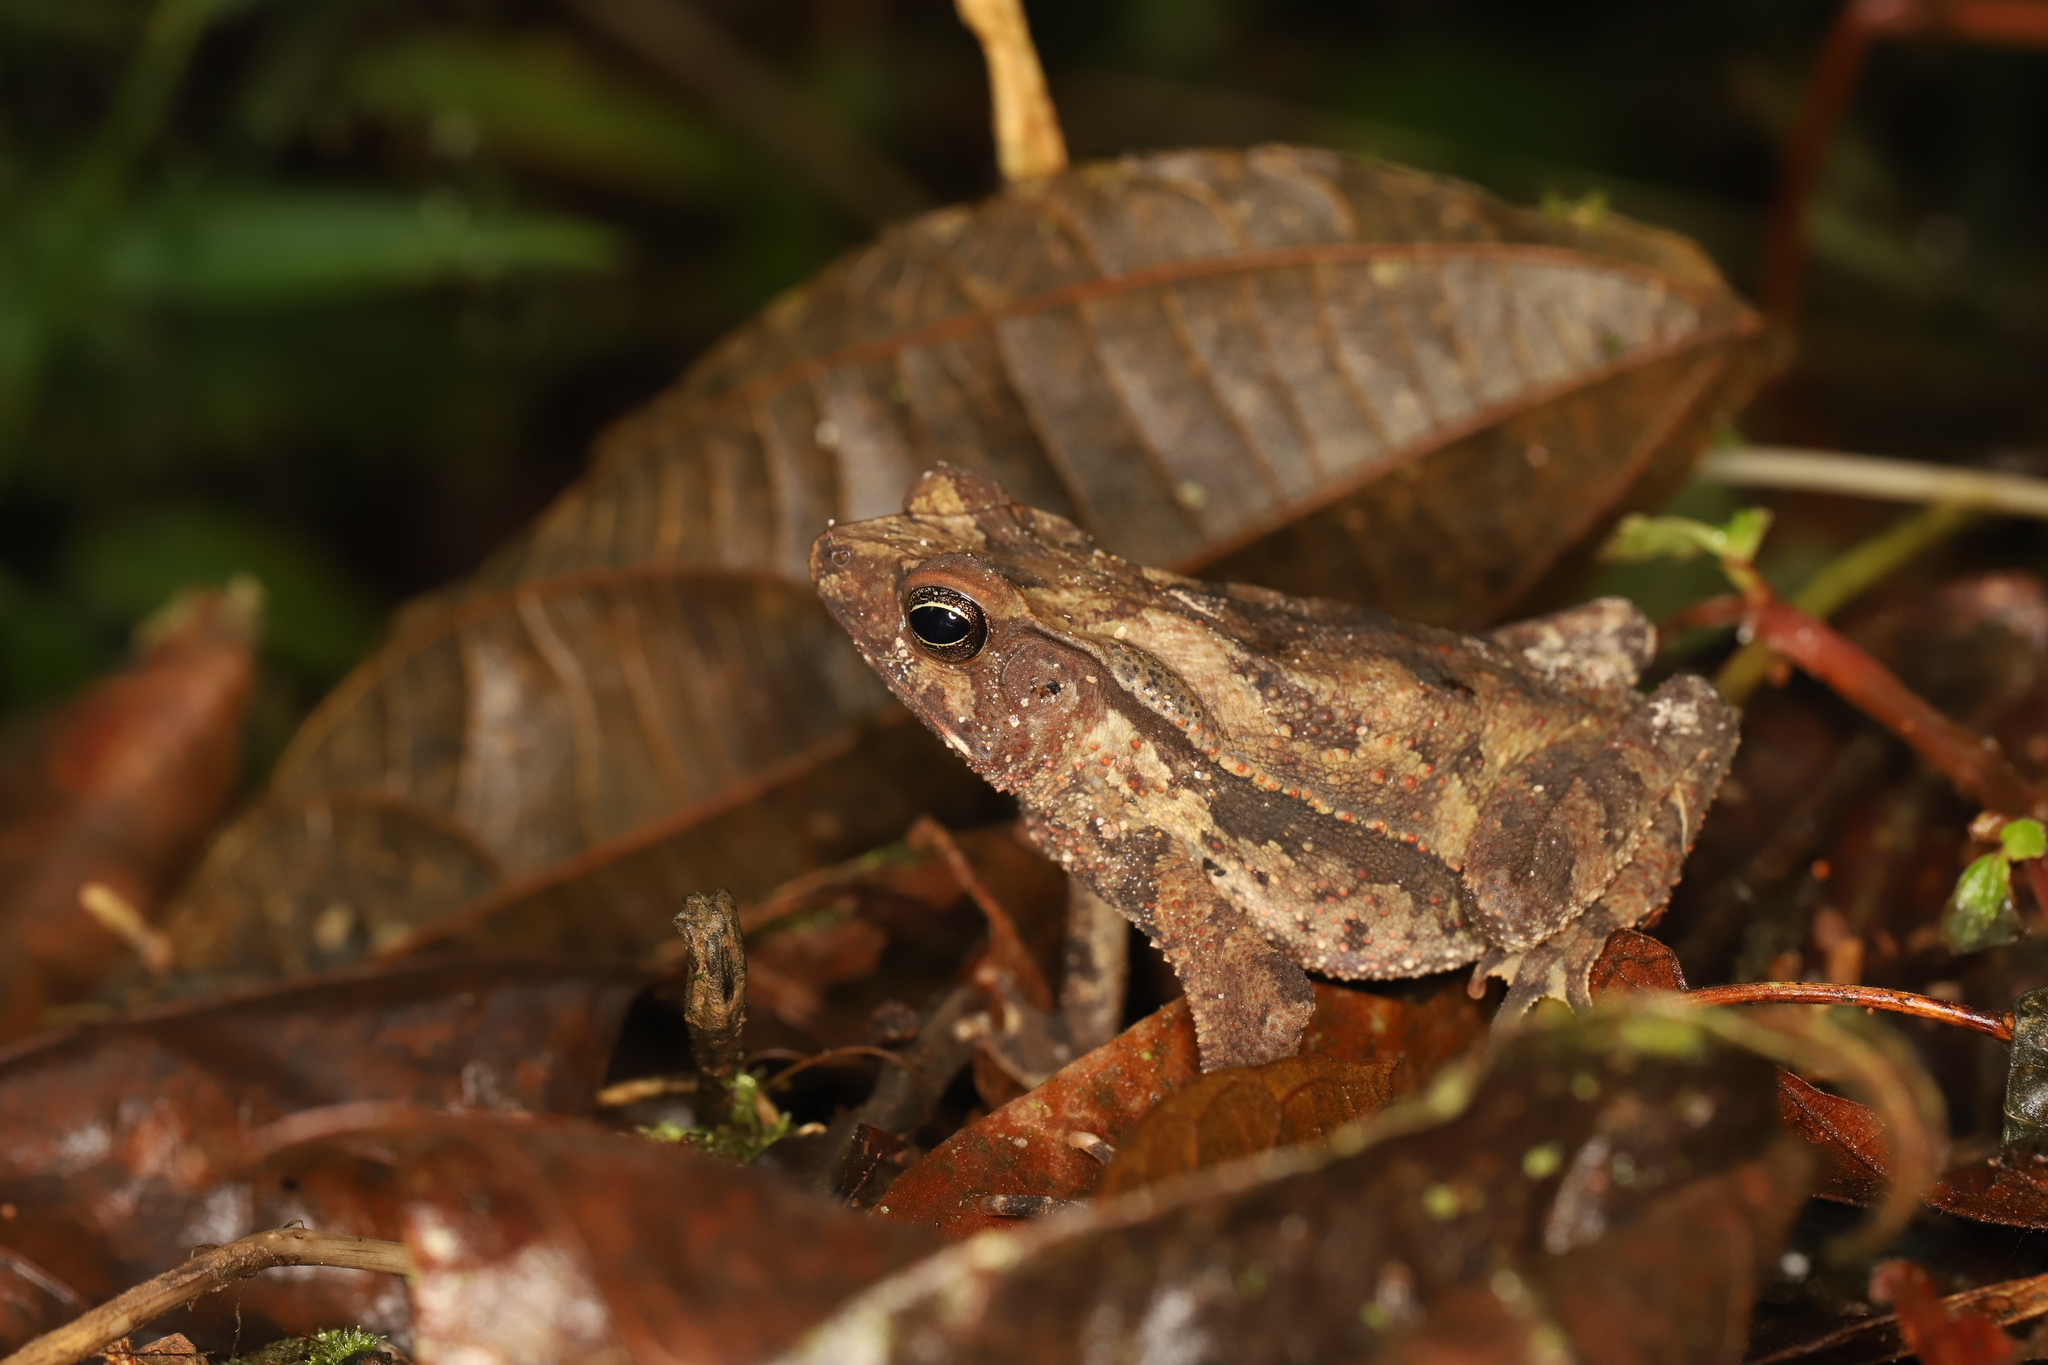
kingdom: Animalia
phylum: Chordata
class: Amphibia
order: Anura
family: Bufonidae
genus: Rhinella
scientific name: Rhinella alata
